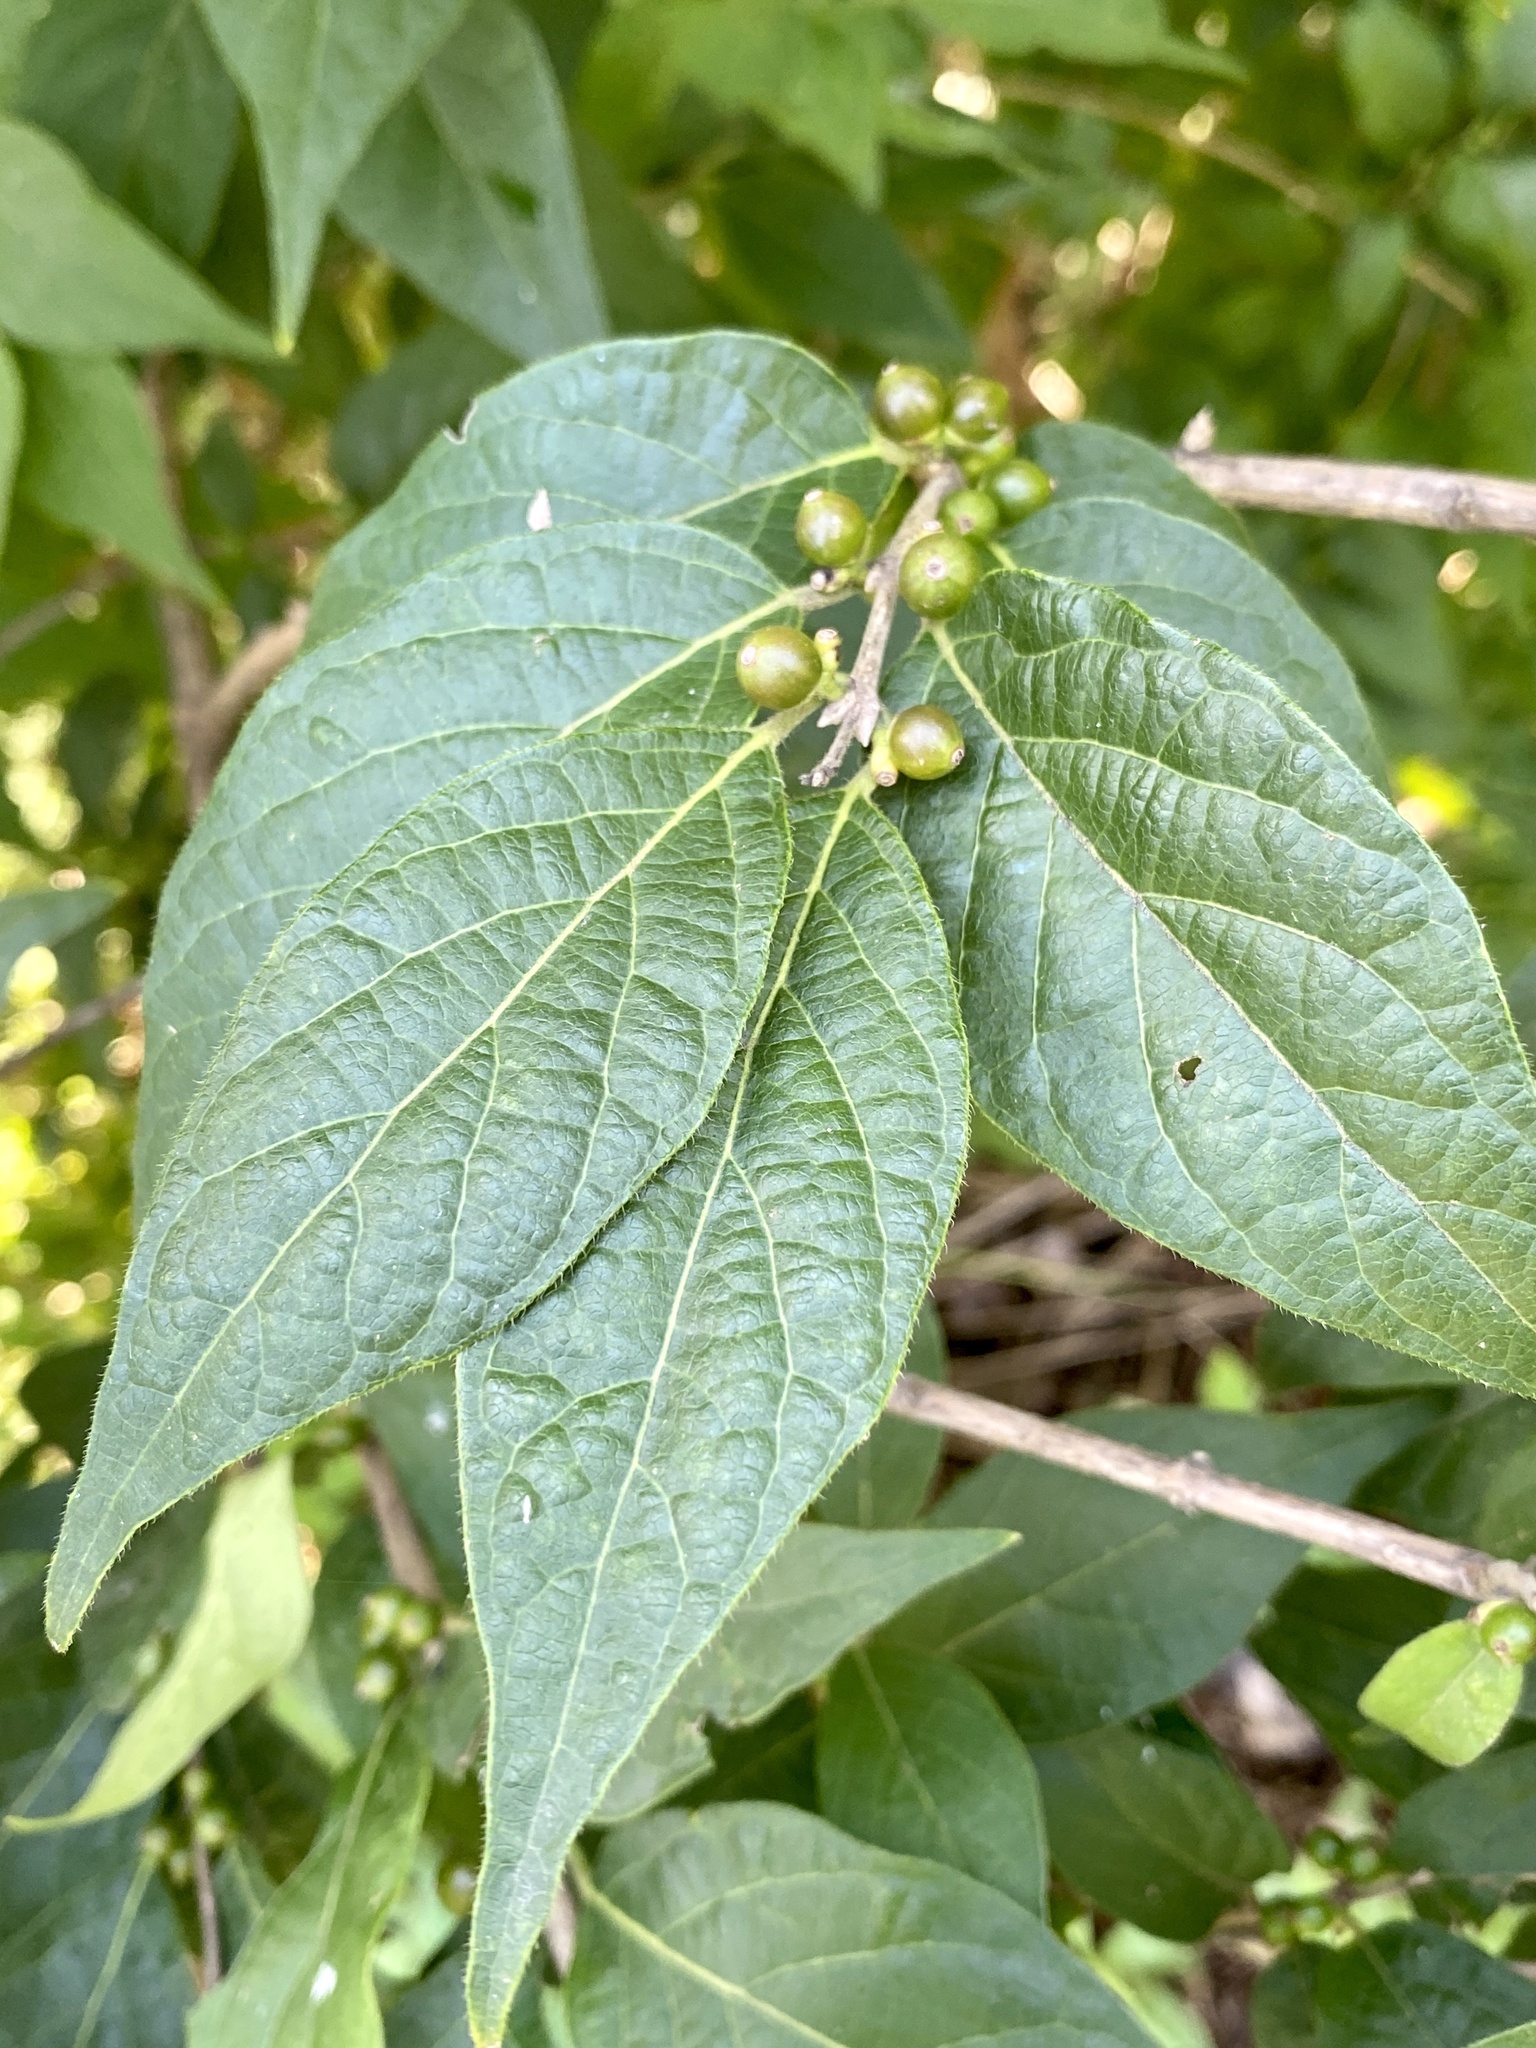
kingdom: Plantae
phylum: Tracheophyta
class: Magnoliopsida
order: Dipsacales
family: Caprifoliaceae
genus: Lonicera
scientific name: Lonicera maackii
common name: Amur honeysuckle
